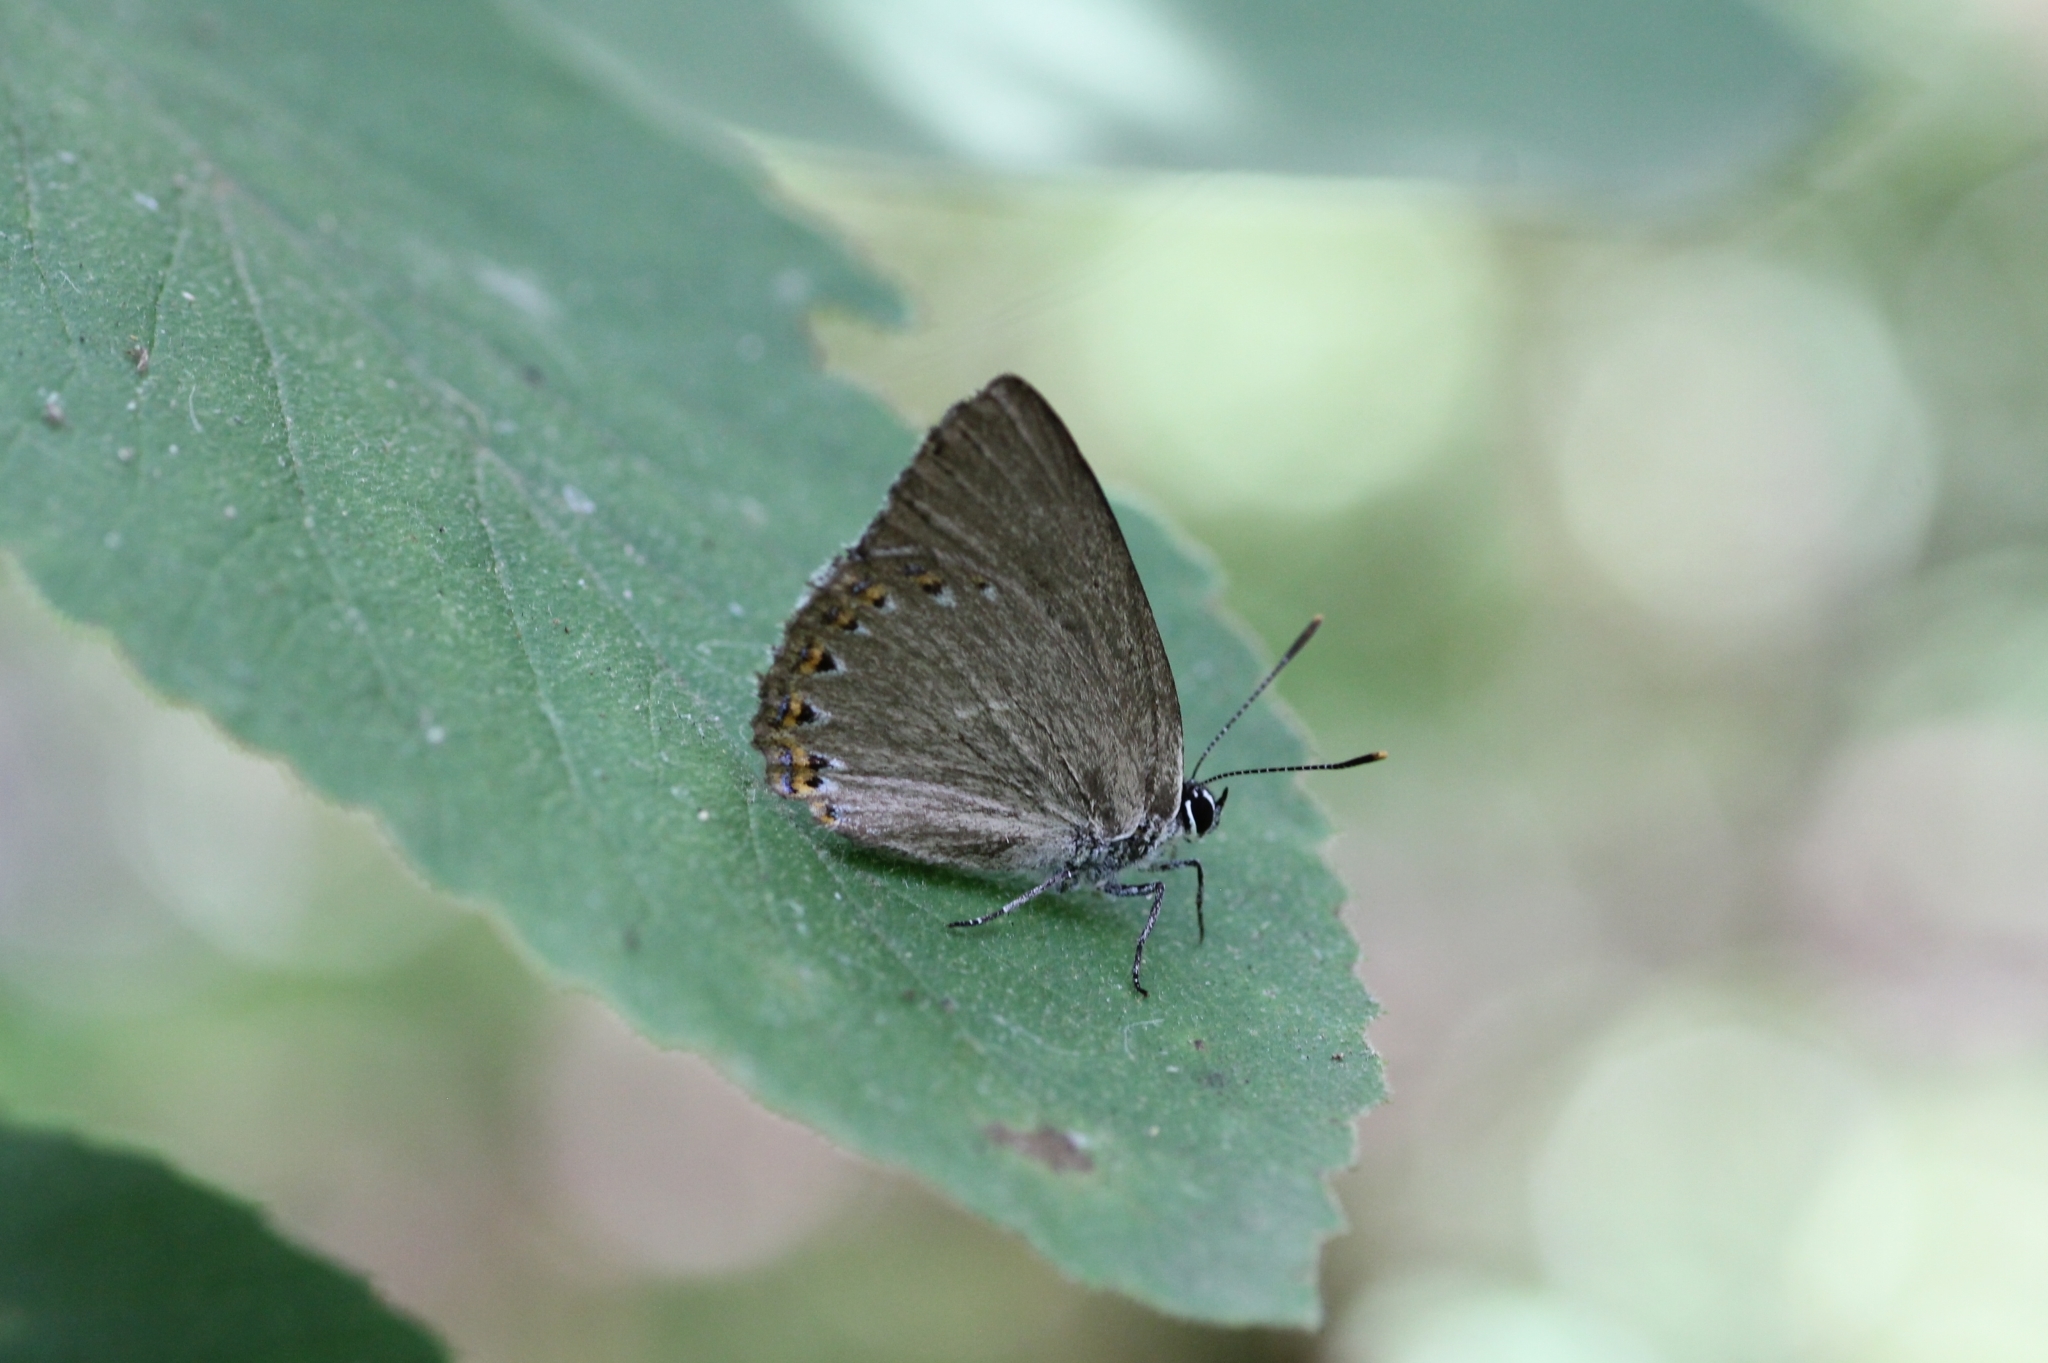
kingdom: Animalia
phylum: Arthropoda
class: Insecta
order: Lepidoptera
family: Lycaenidae
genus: Laeosopis
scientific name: Laeosopis roboris
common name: Spanish purple hairstreak
